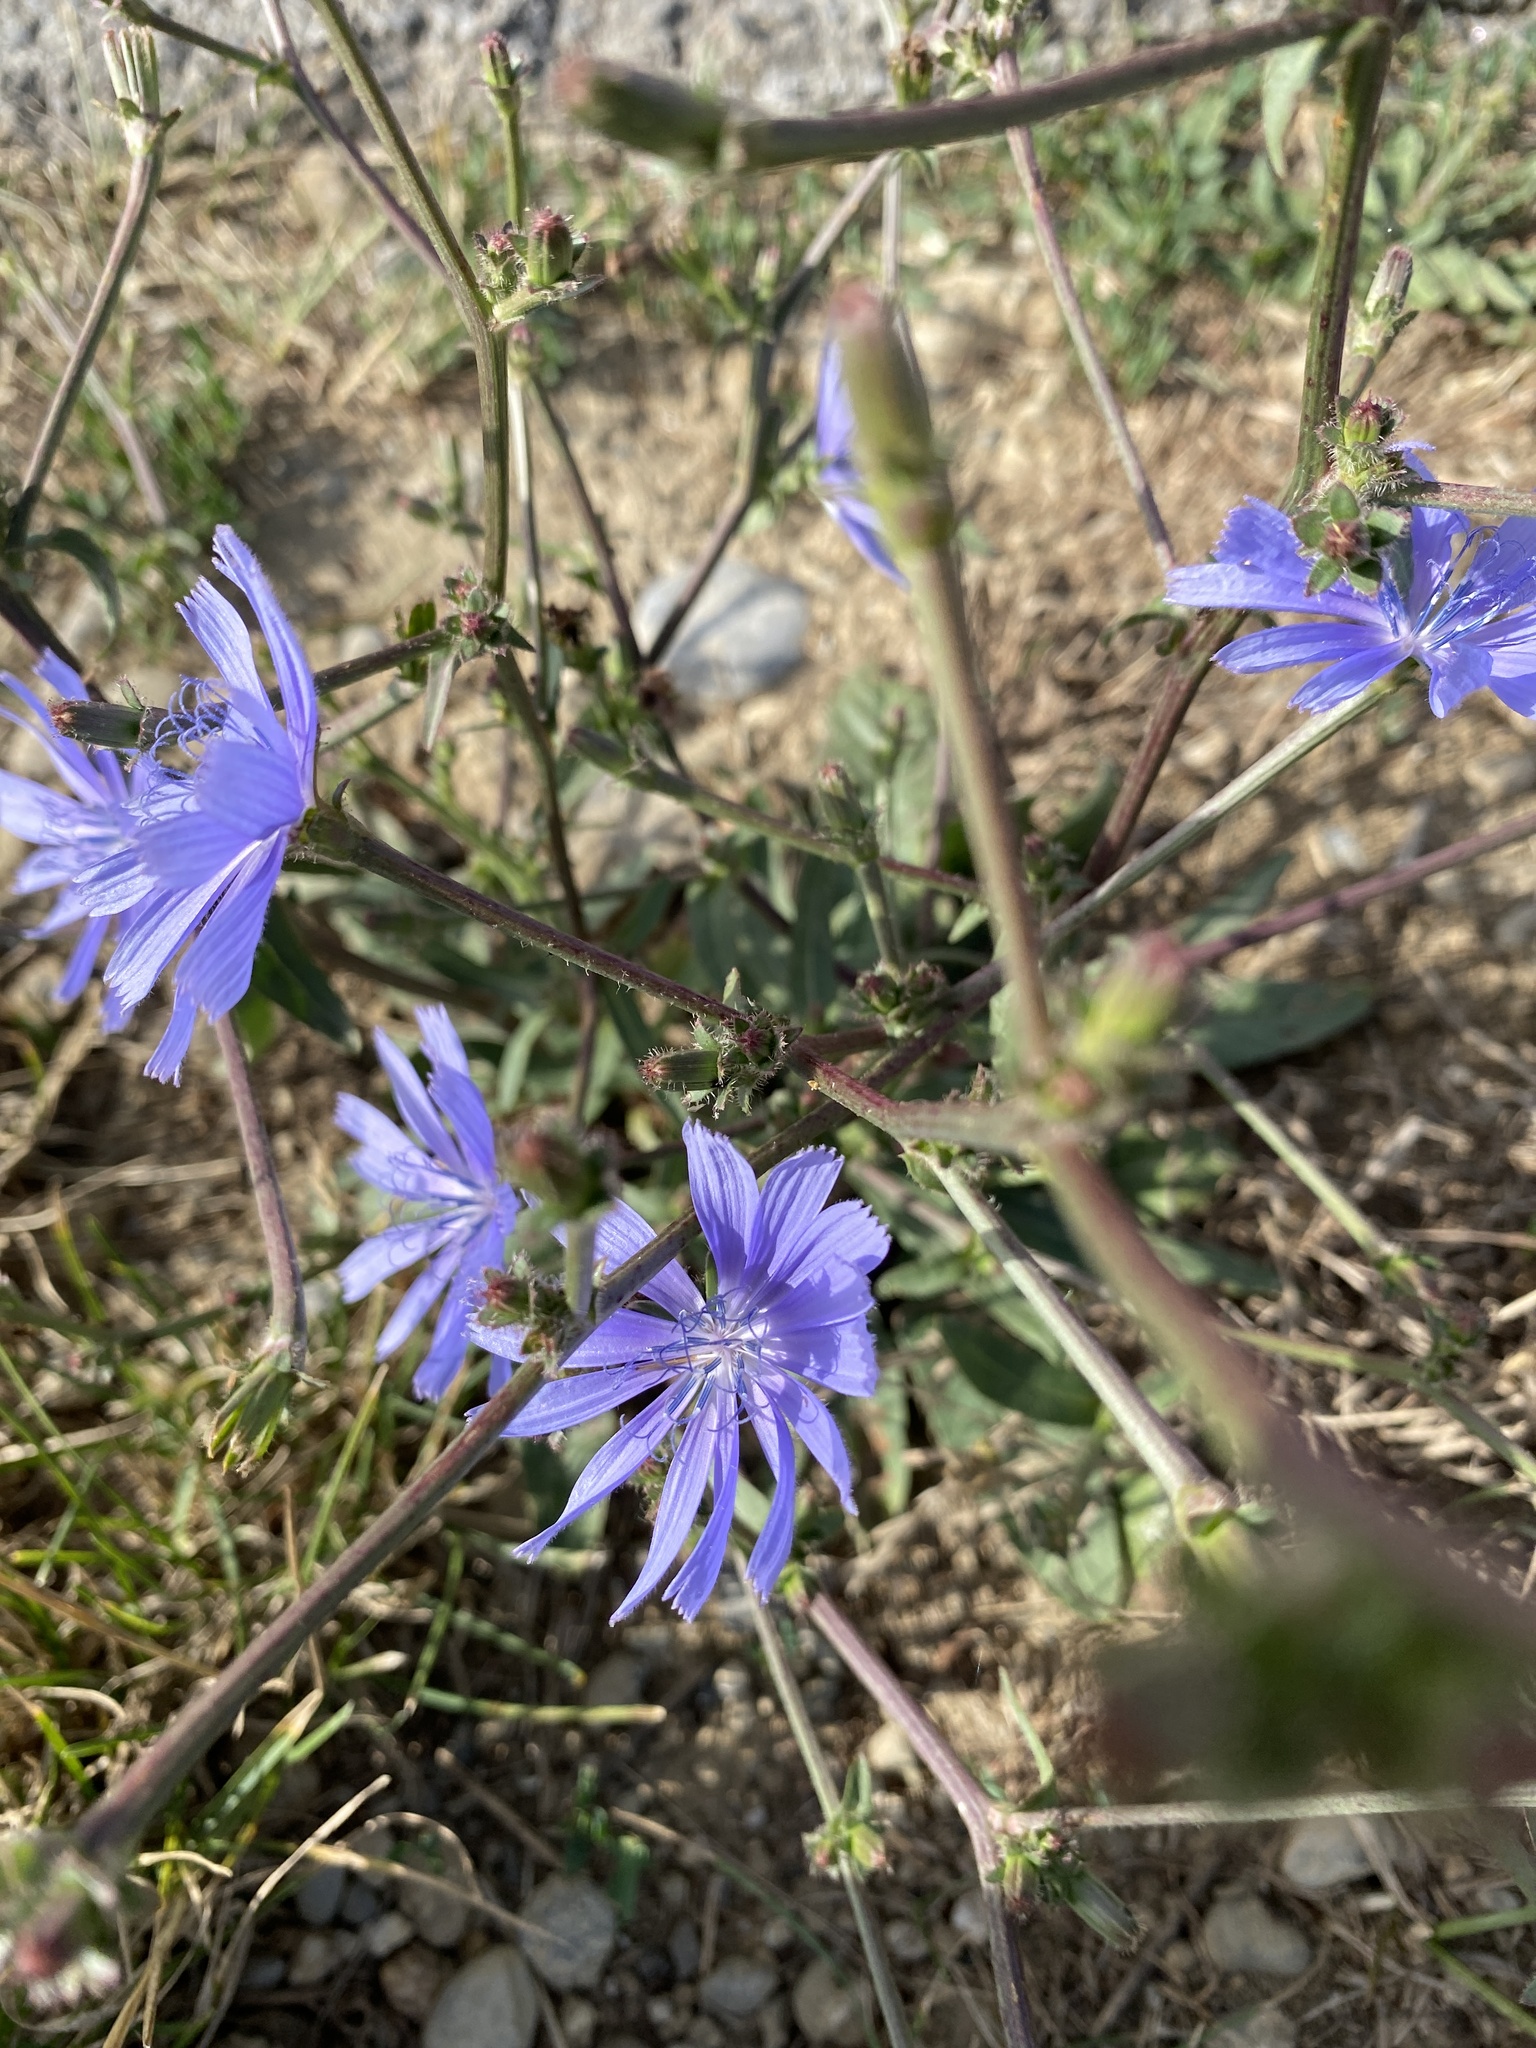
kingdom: Plantae
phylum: Tracheophyta
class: Magnoliopsida
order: Asterales
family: Asteraceae
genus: Cichorium
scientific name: Cichorium intybus
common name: Chicory
